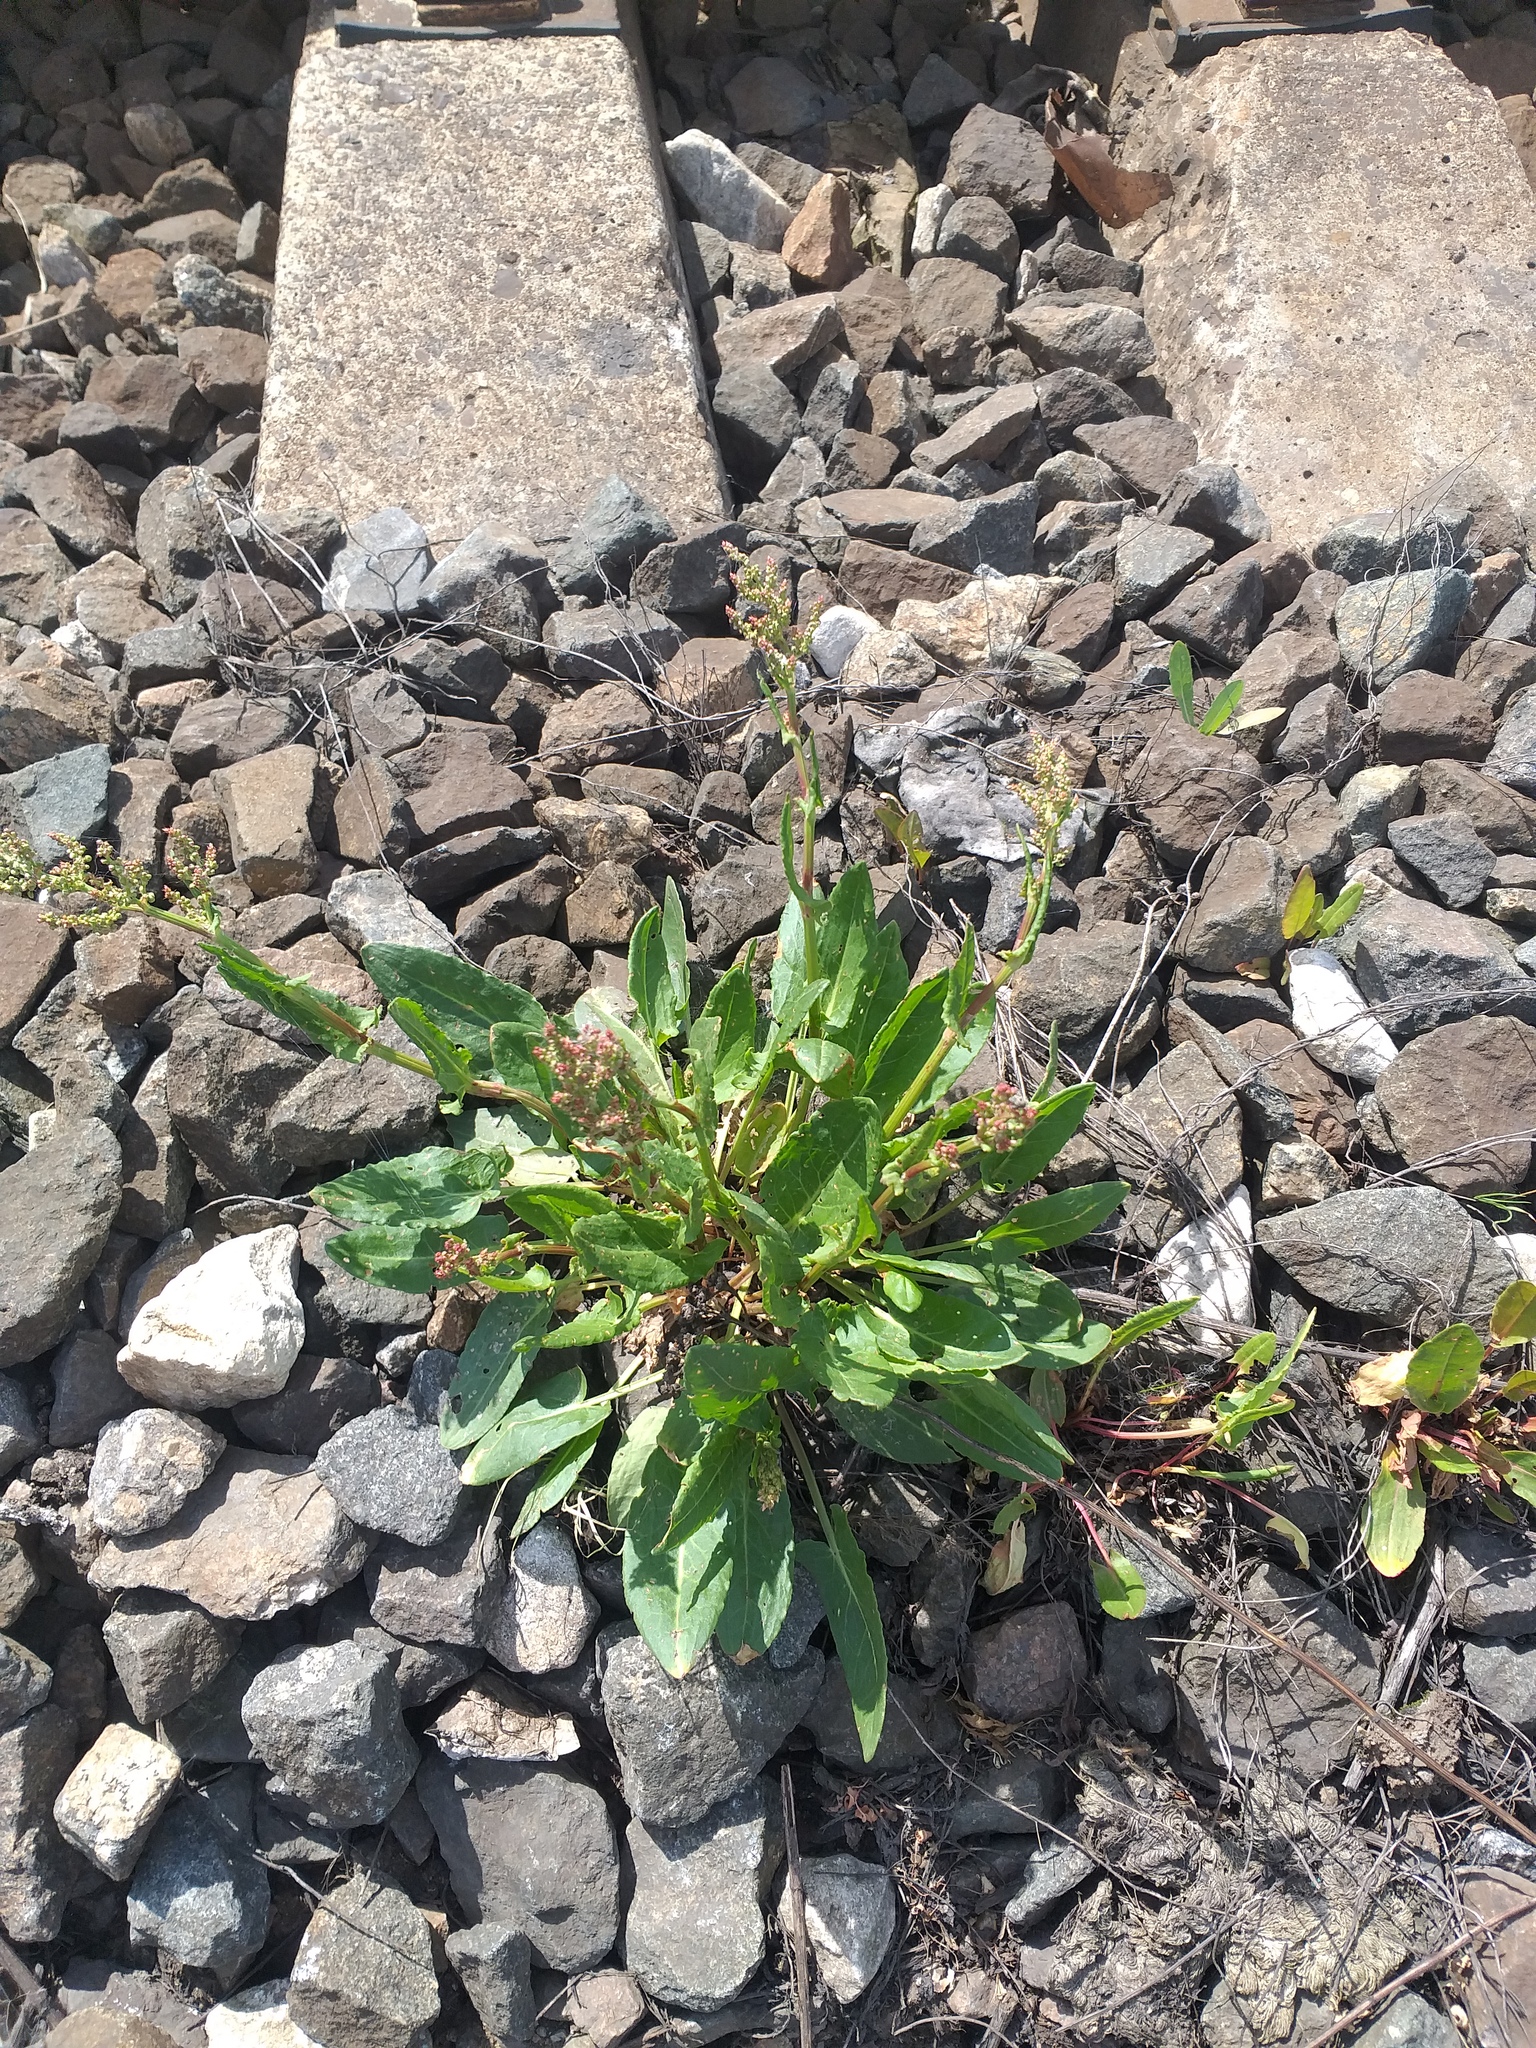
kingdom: Plantae
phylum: Tracheophyta
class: Magnoliopsida
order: Caryophyllales
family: Polygonaceae
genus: Rumex
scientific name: Rumex thyrsiflorus
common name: Garden sorrel
